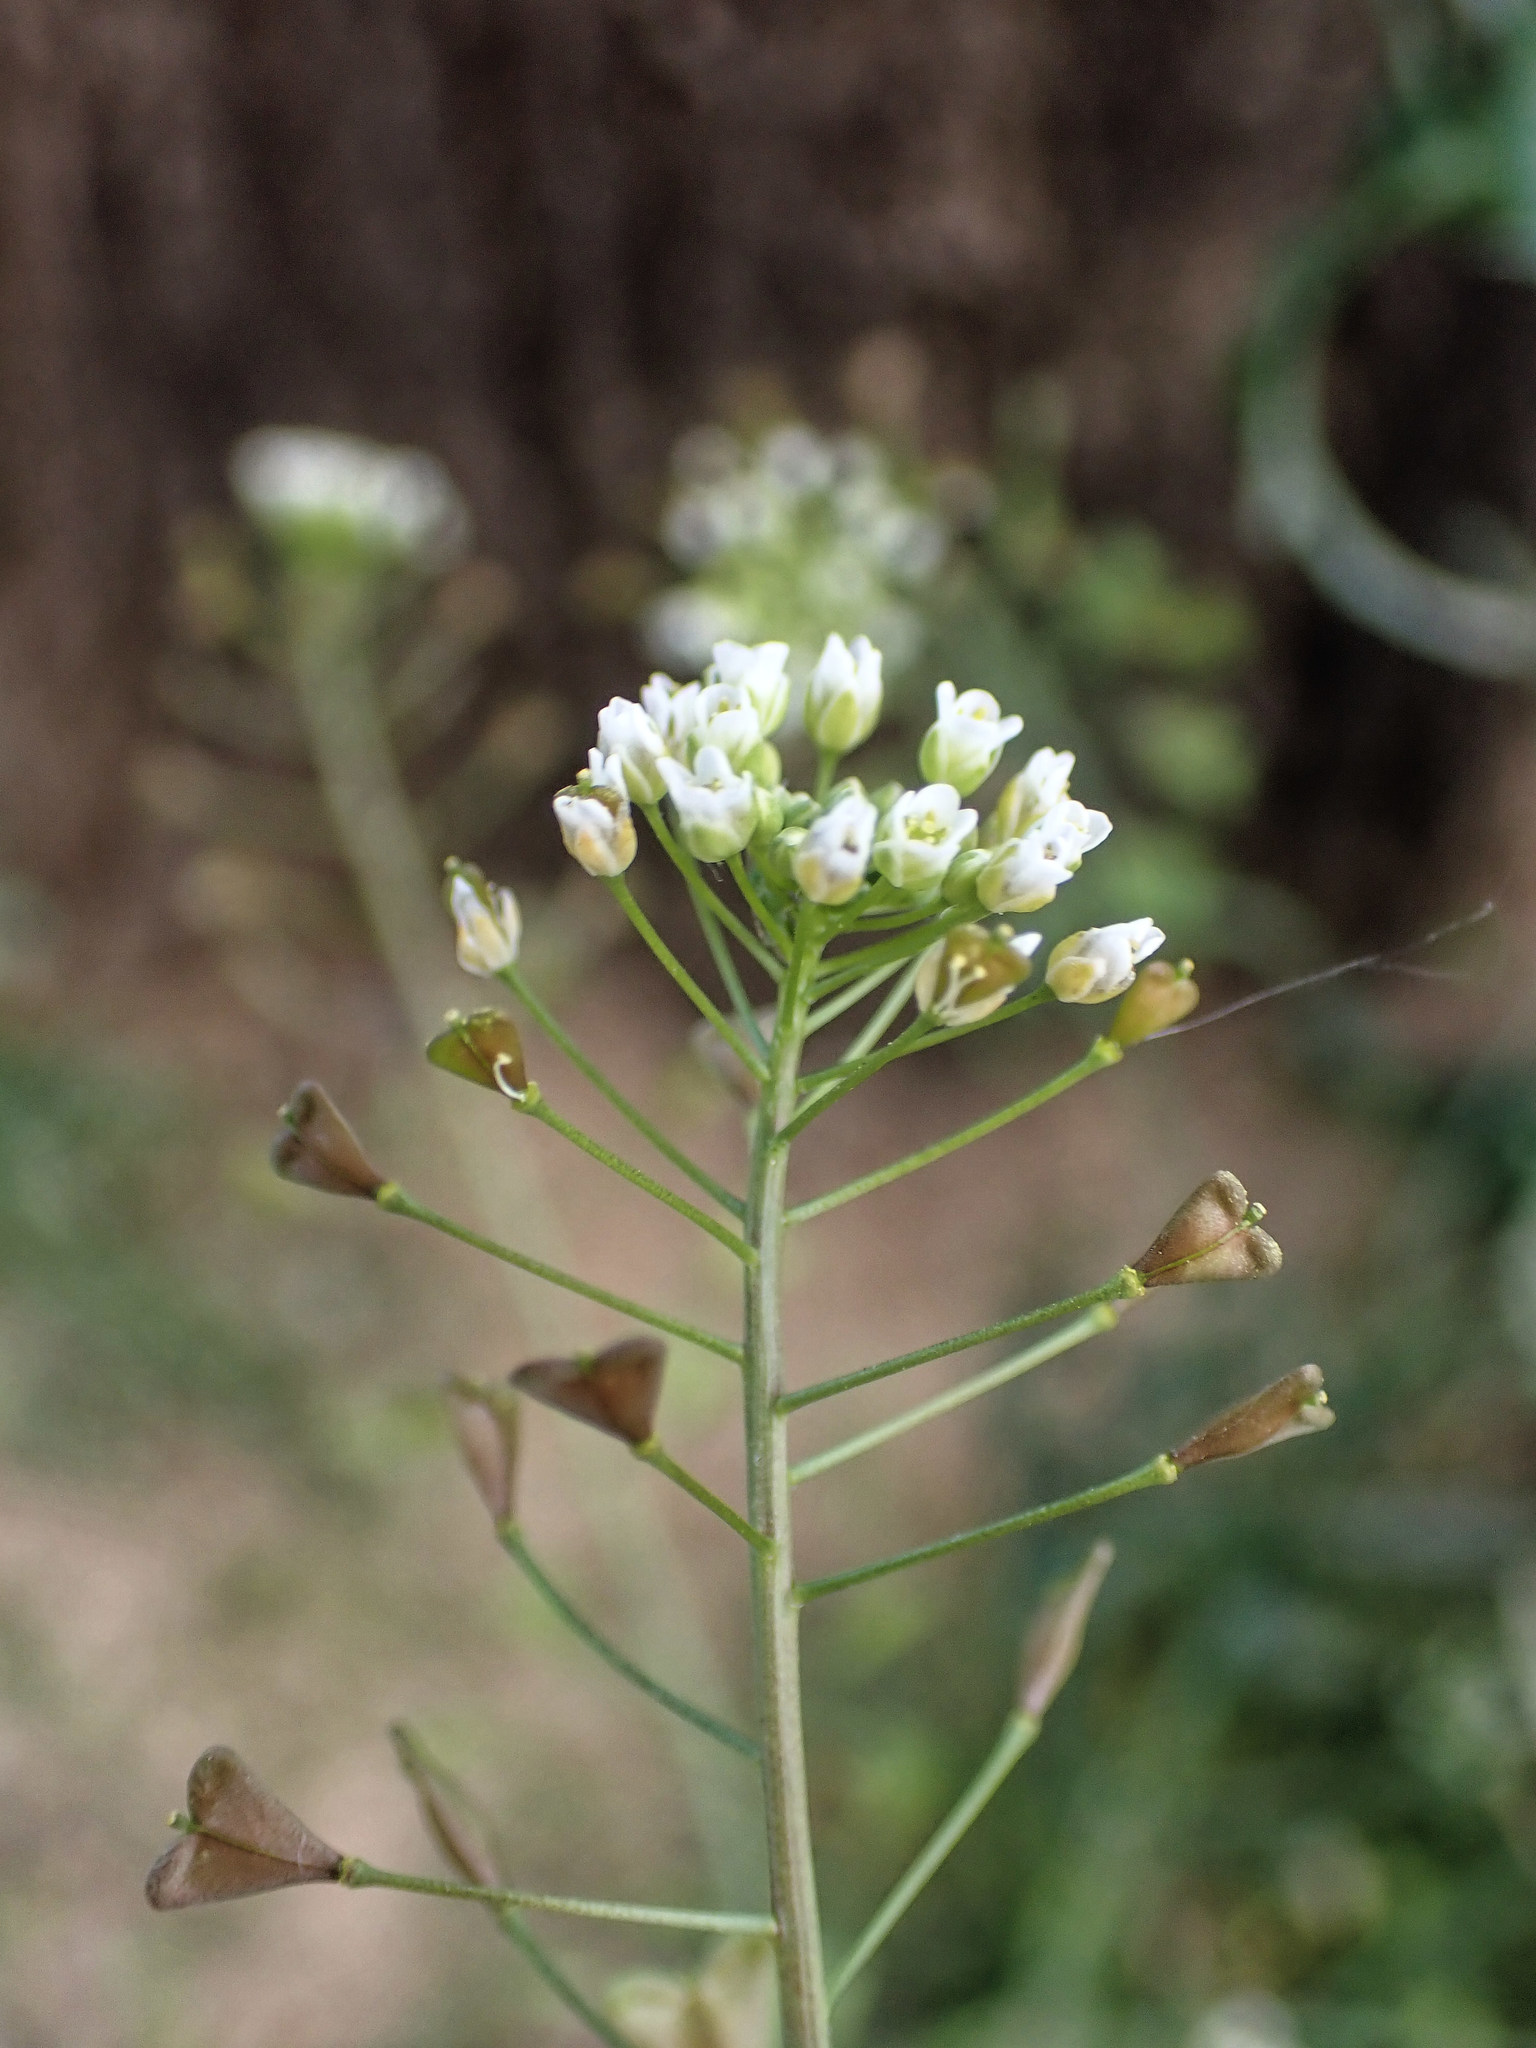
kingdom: Plantae
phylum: Tracheophyta
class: Magnoliopsida
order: Brassicales
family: Brassicaceae
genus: Capsella
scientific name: Capsella bursa-pastoris
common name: Shepherd's purse
